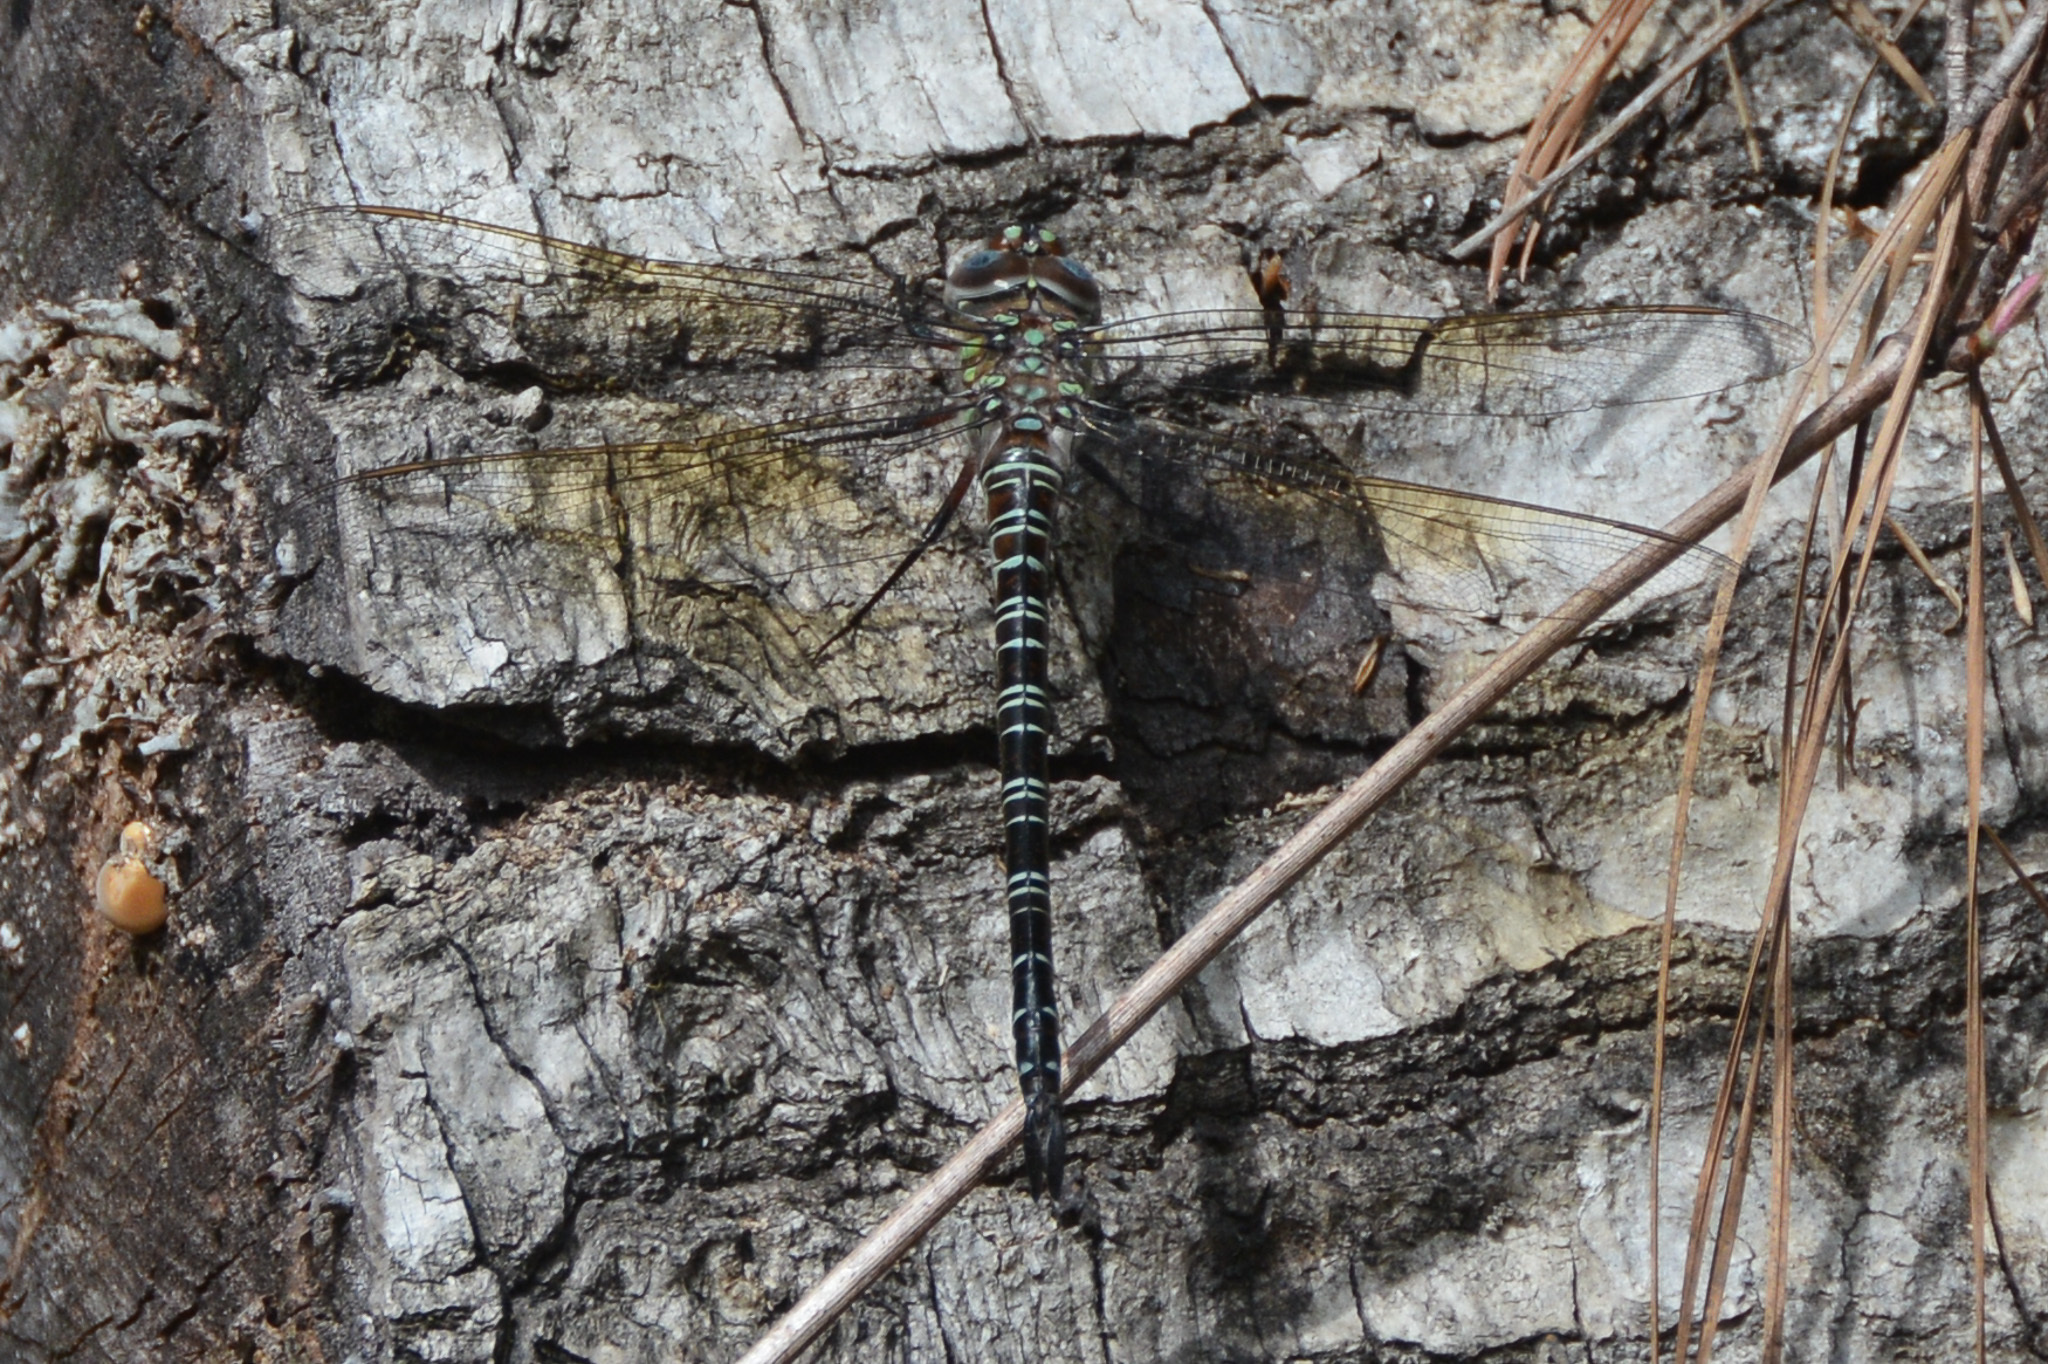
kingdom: Animalia
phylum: Arthropoda
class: Insecta
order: Odonata
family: Aeshnidae
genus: Epiaeschna
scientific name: Epiaeschna heros
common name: Swamp darner
